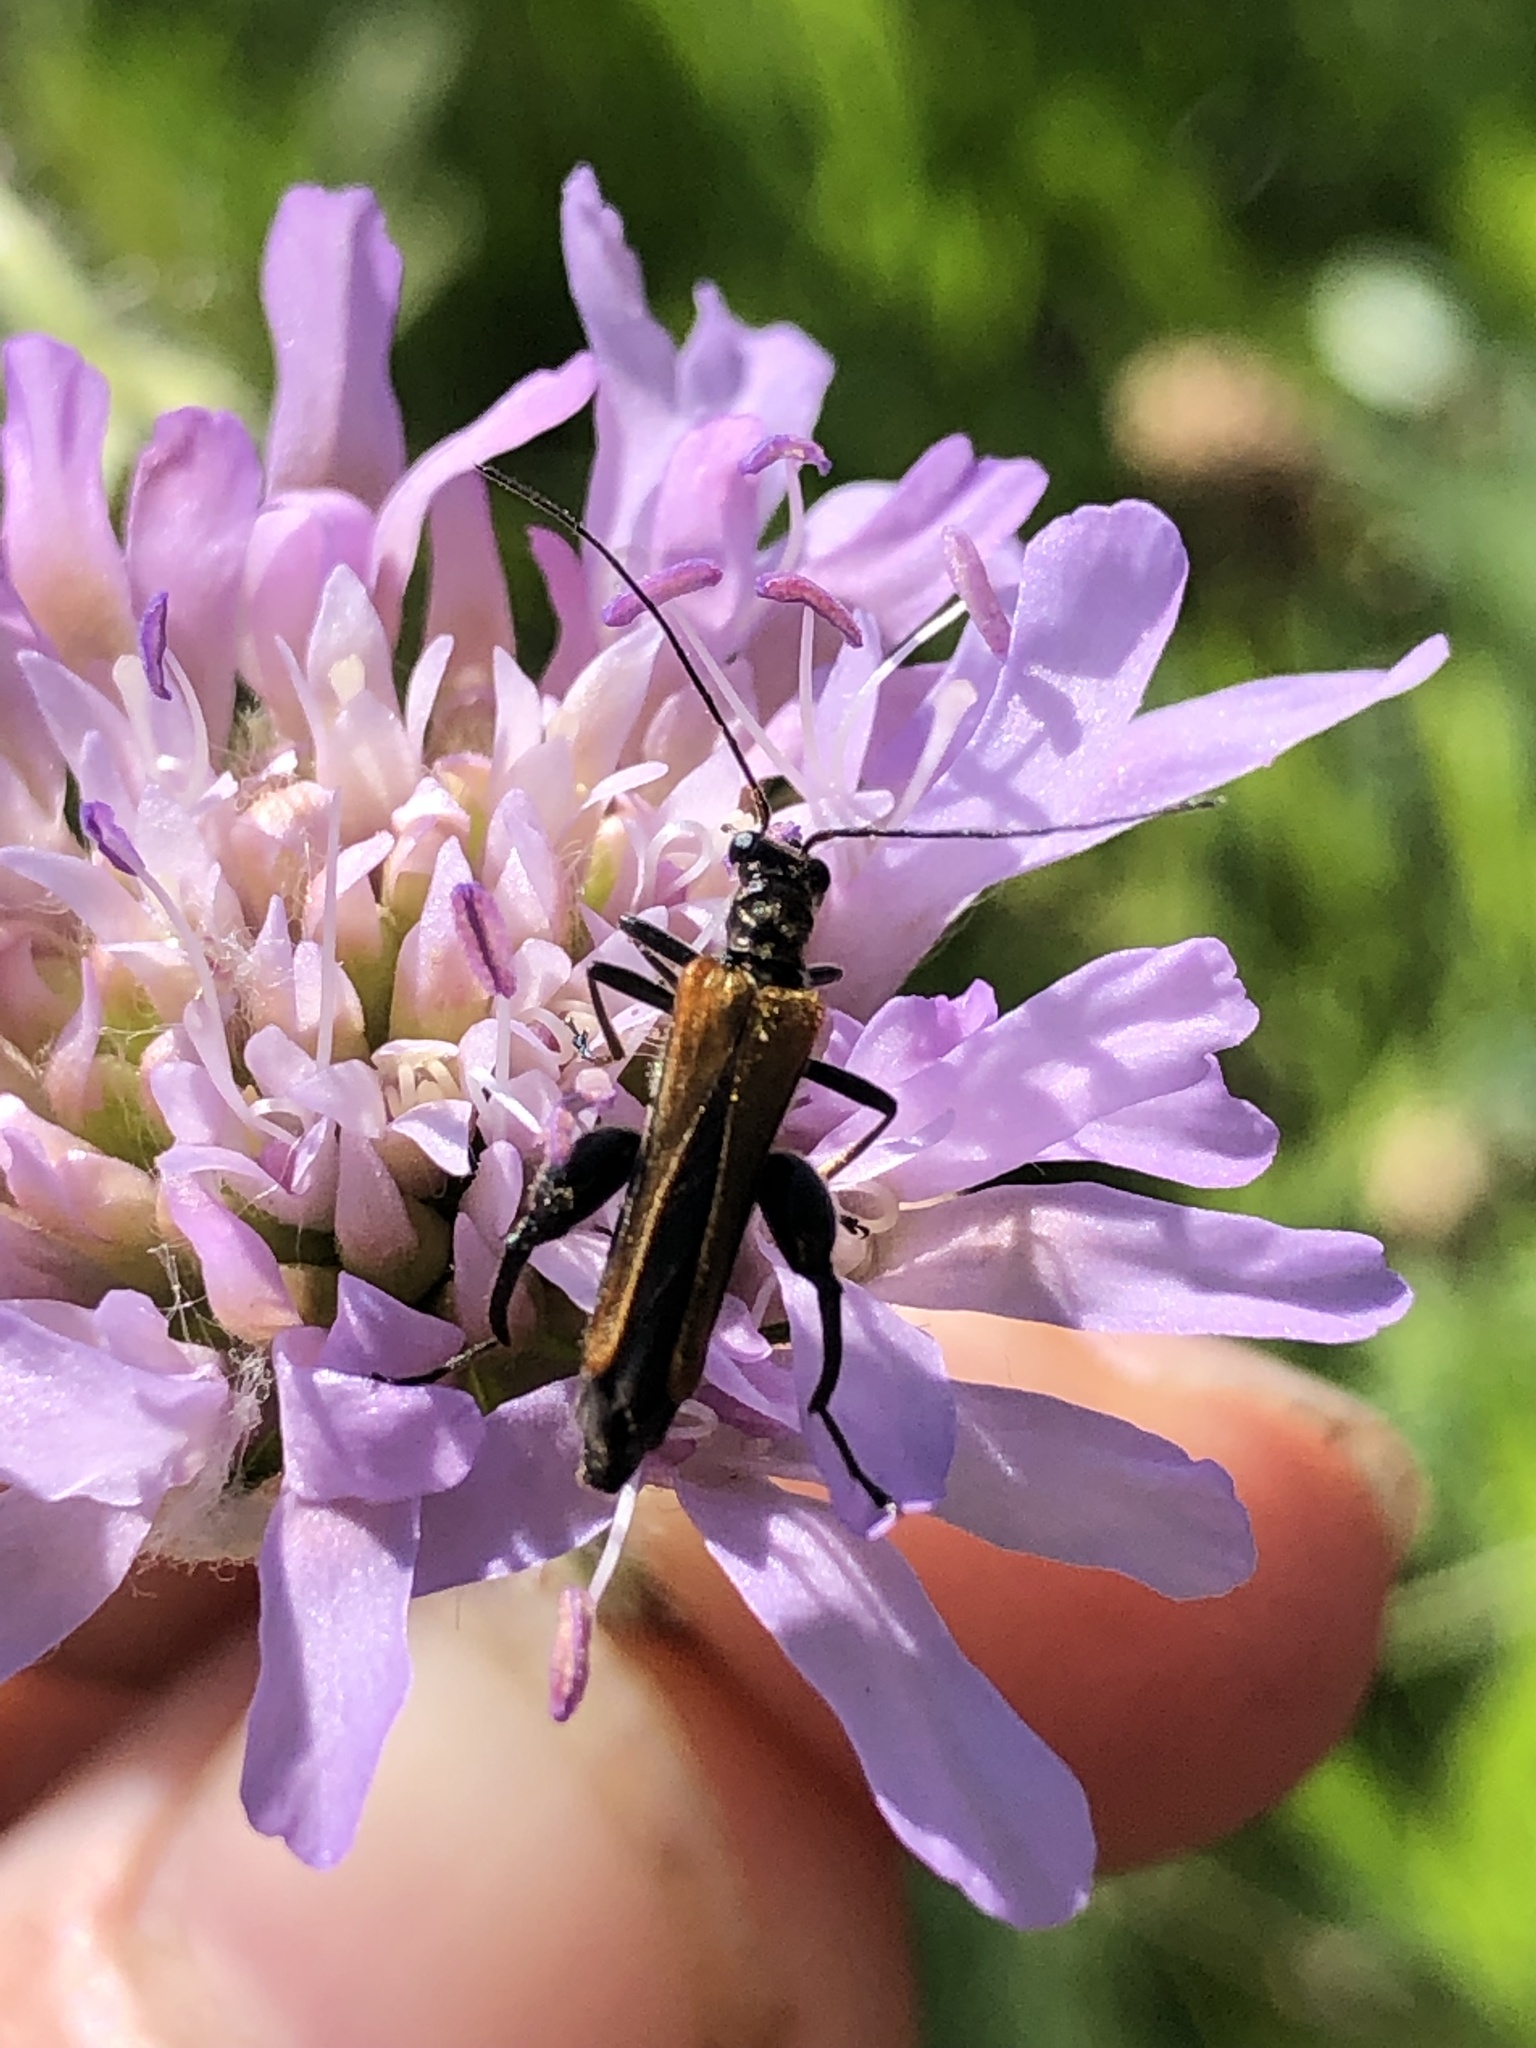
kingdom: Animalia
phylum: Arthropoda
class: Insecta
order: Coleoptera
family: Oedemeridae
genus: Oedemera
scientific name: Oedemera femorata
